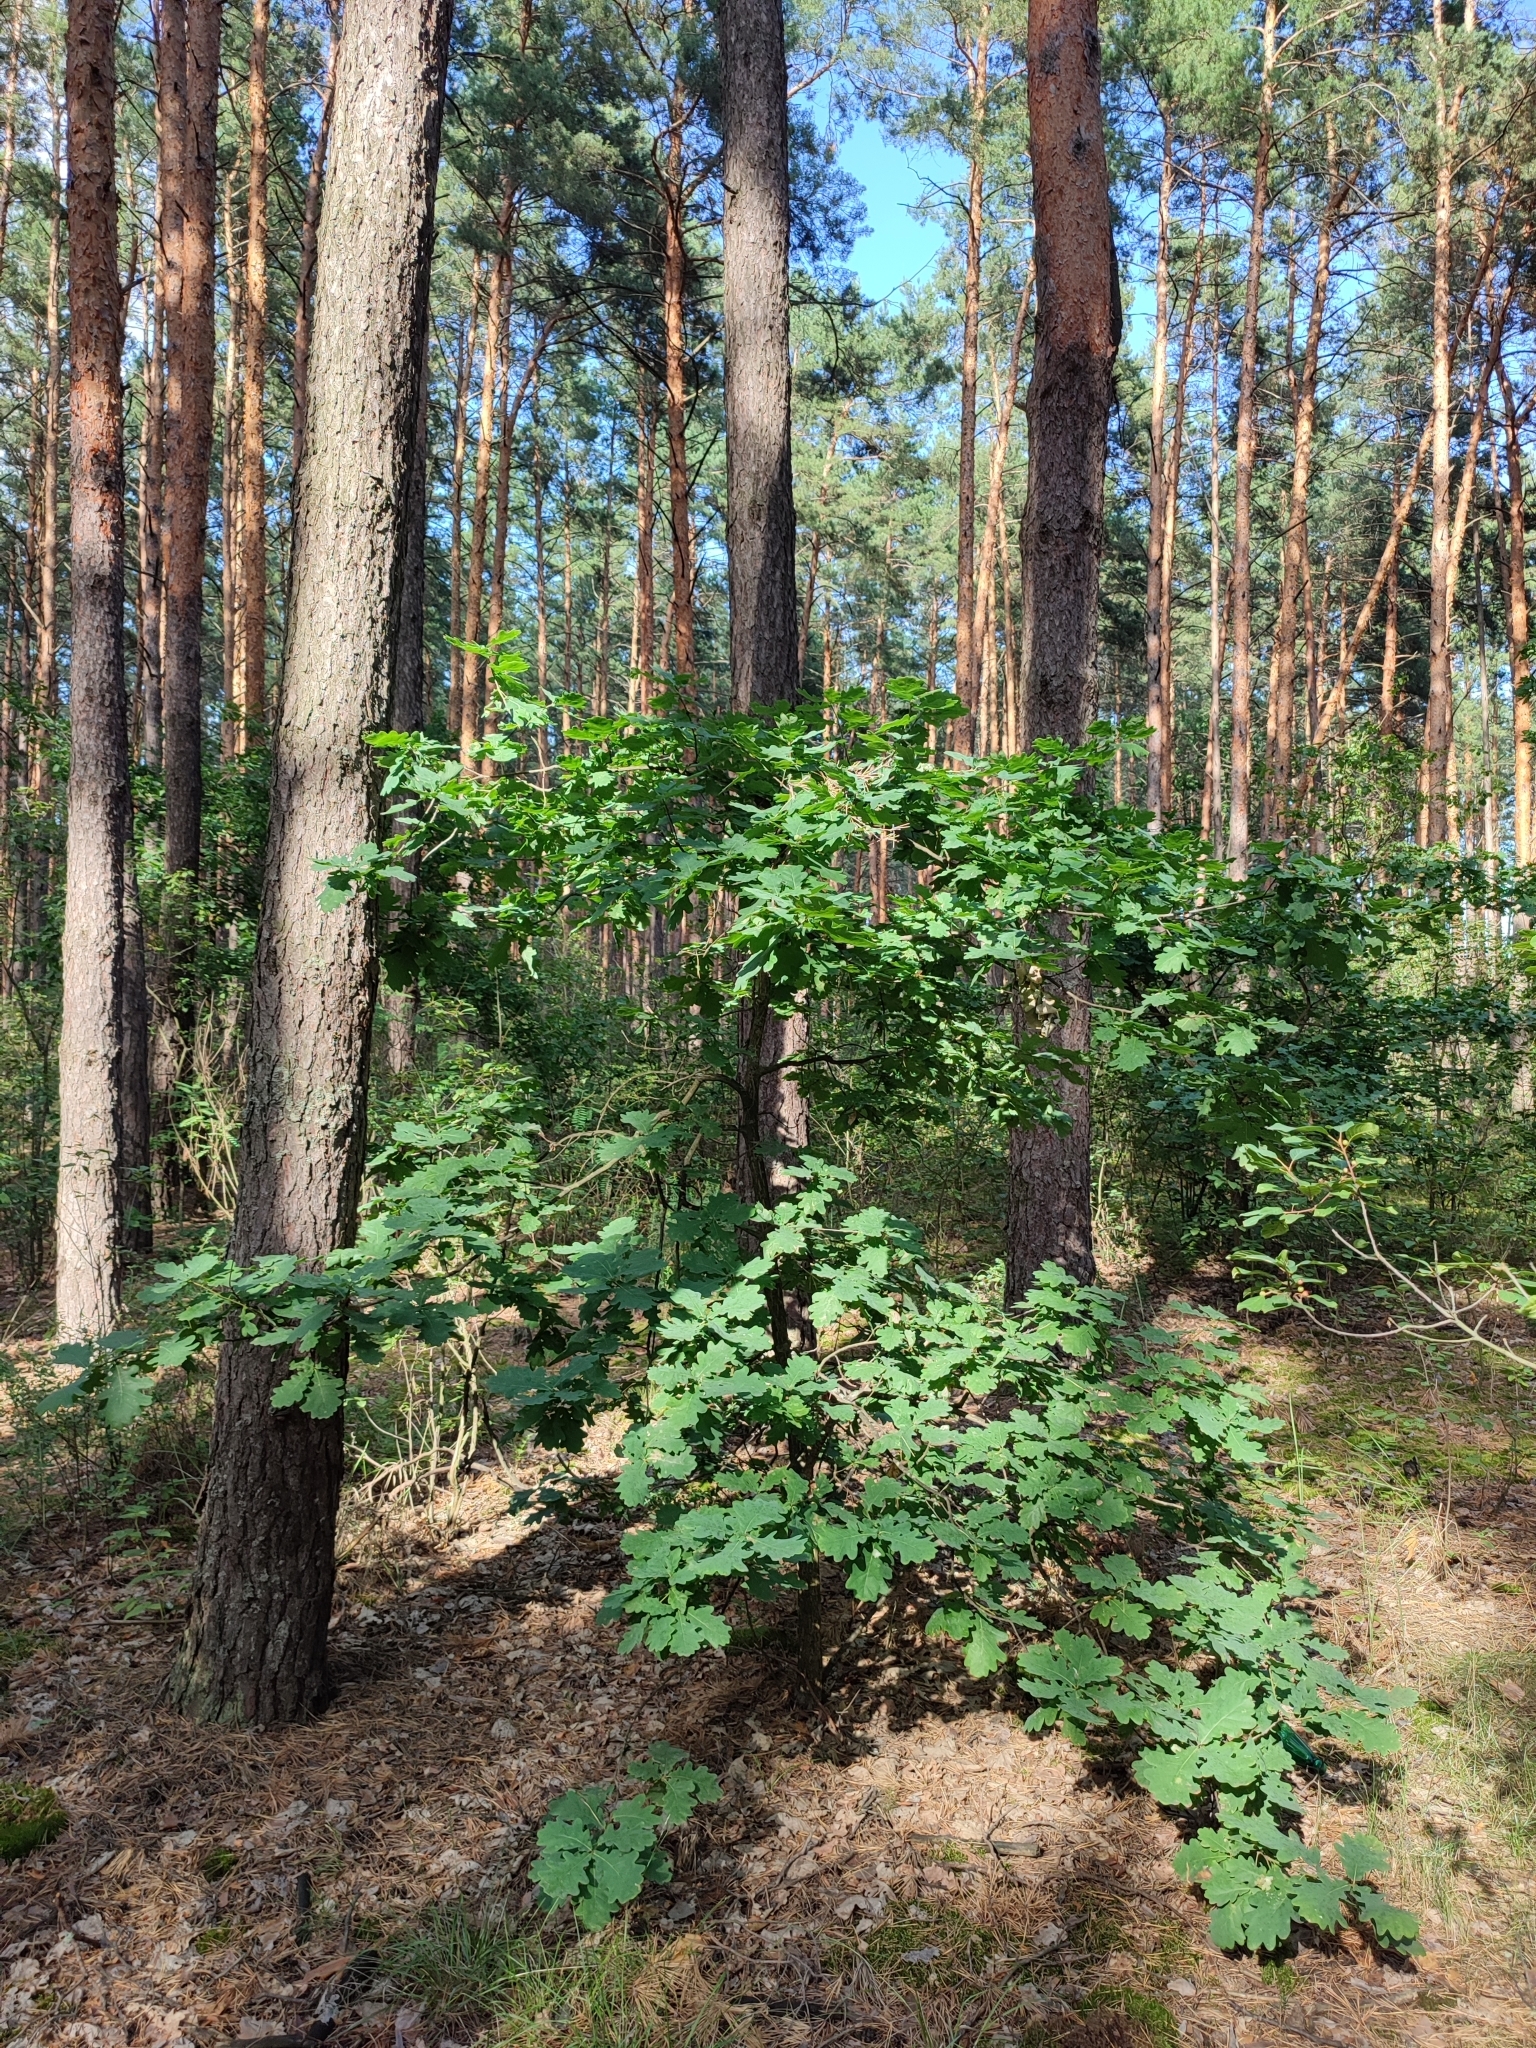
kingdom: Plantae
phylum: Tracheophyta
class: Magnoliopsida
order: Fagales
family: Fagaceae
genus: Quercus
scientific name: Quercus robur
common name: Pedunculate oak
